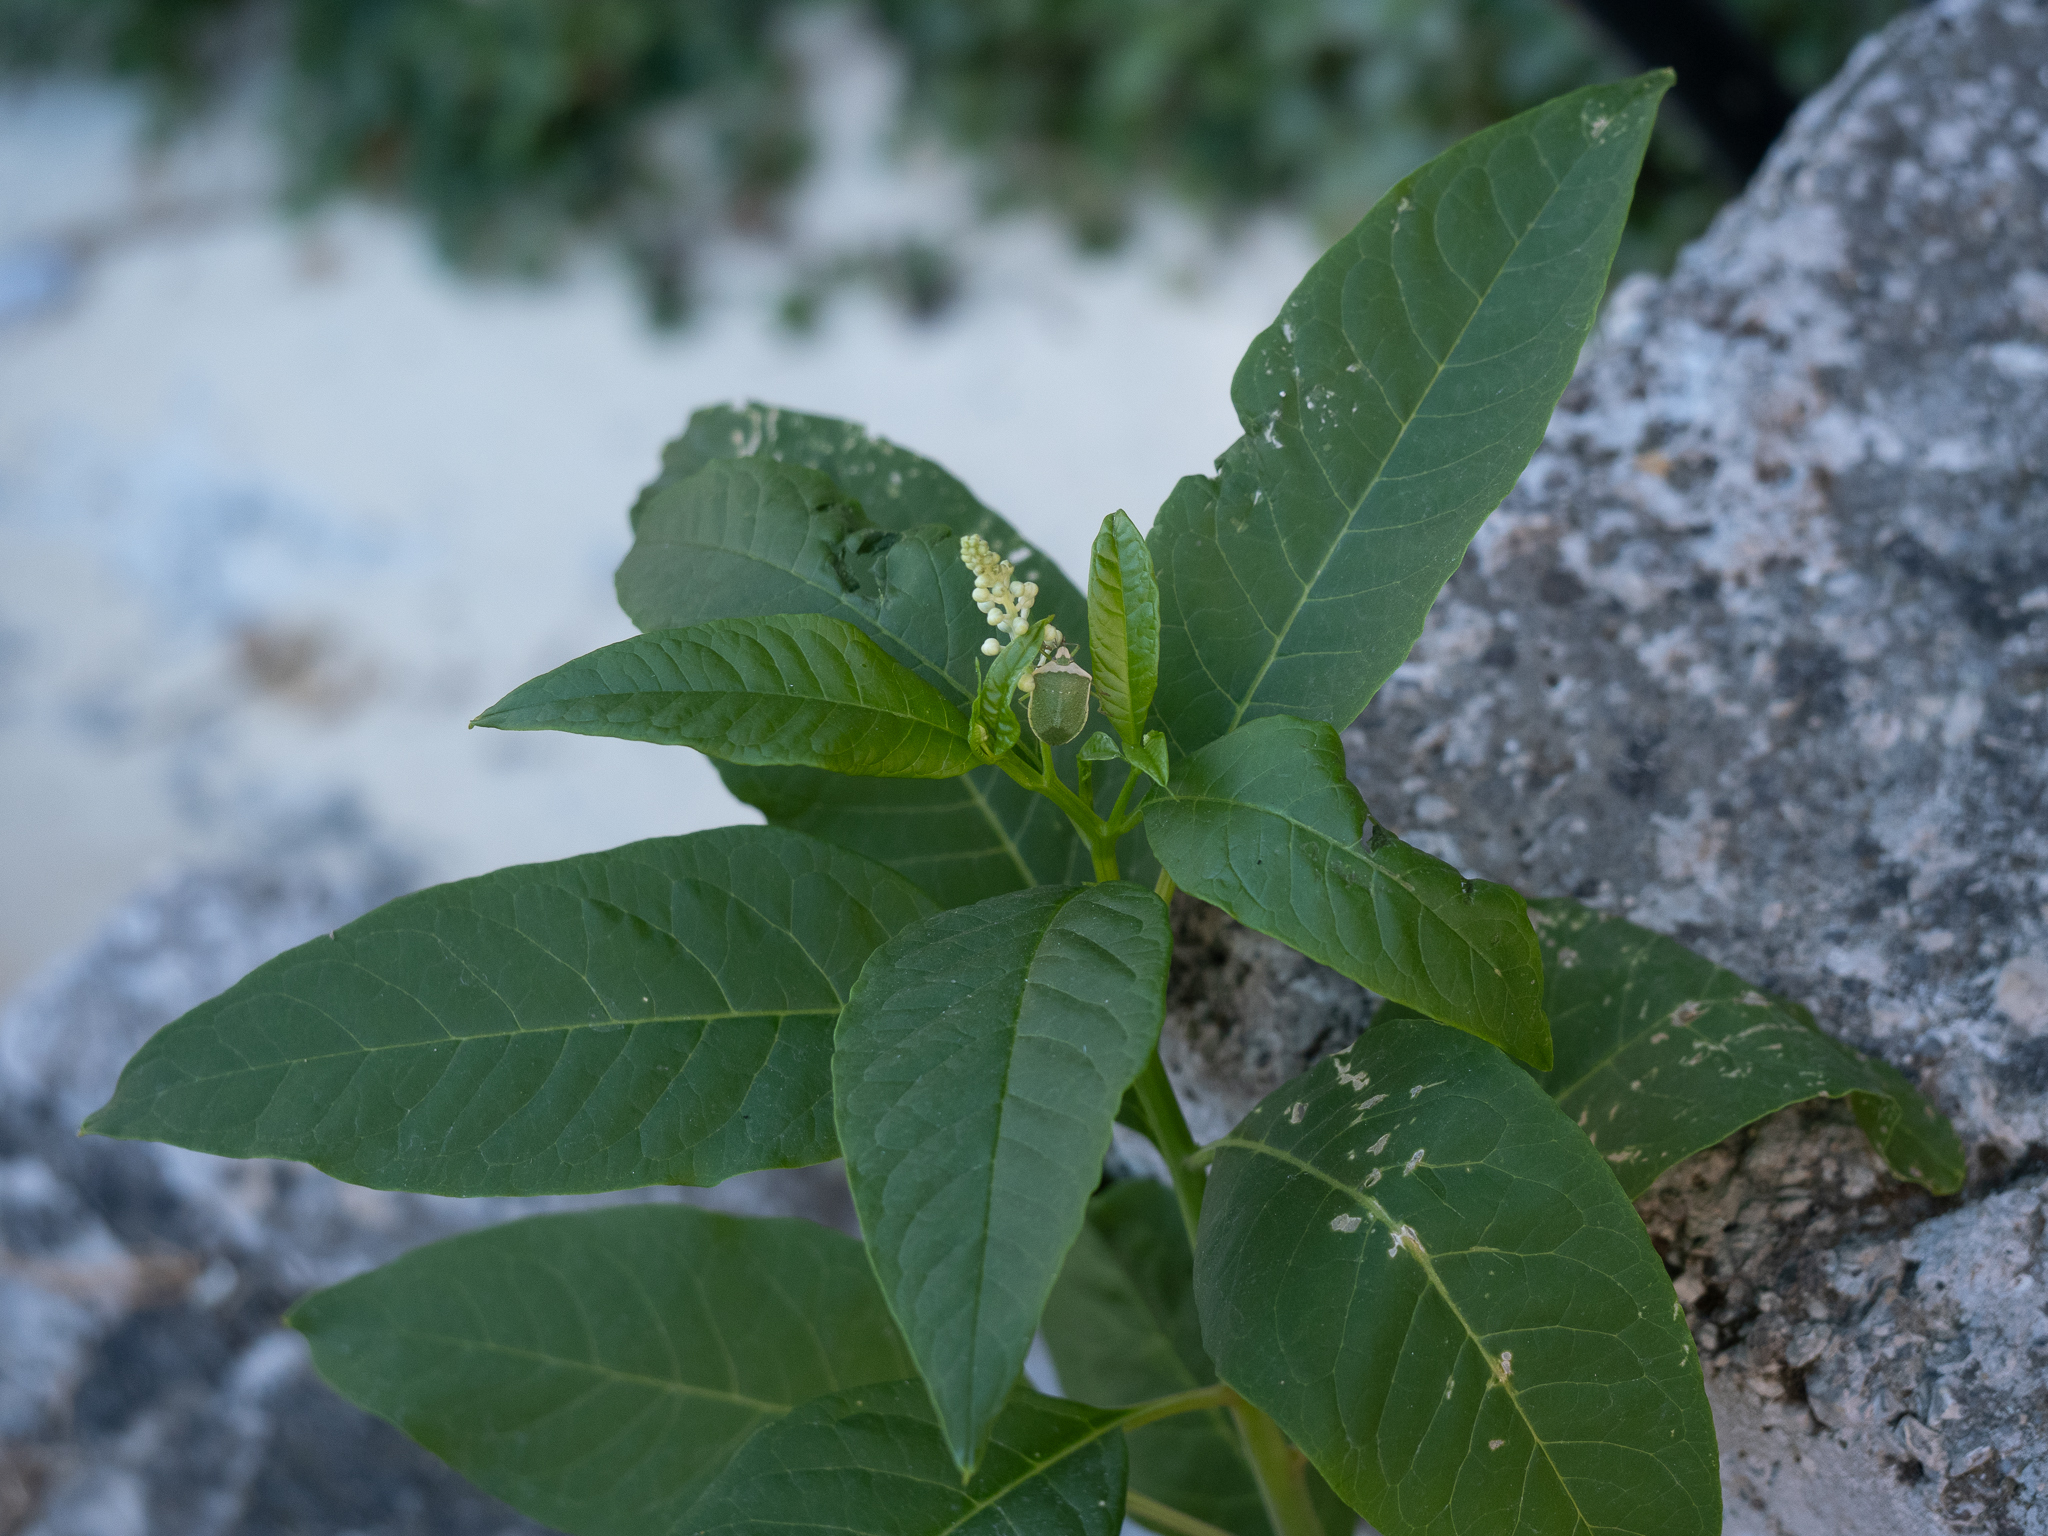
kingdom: Plantae
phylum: Tracheophyta
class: Magnoliopsida
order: Caryophyllales
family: Phytolaccaceae
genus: Phytolacca
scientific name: Phytolacca americana
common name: American pokeweed
